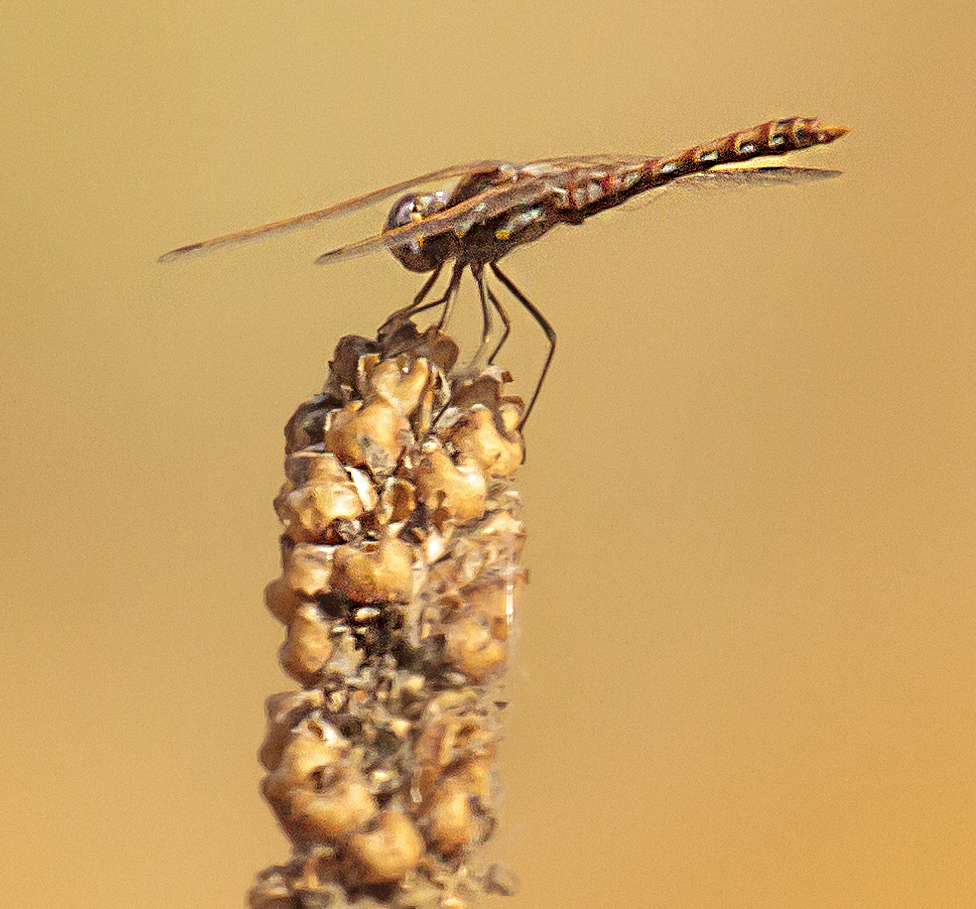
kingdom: Animalia
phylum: Arthropoda
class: Insecta
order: Odonata
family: Libellulidae
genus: Sympetrum
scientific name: Sympetrum corruptum
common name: Variegated meadowhawk
